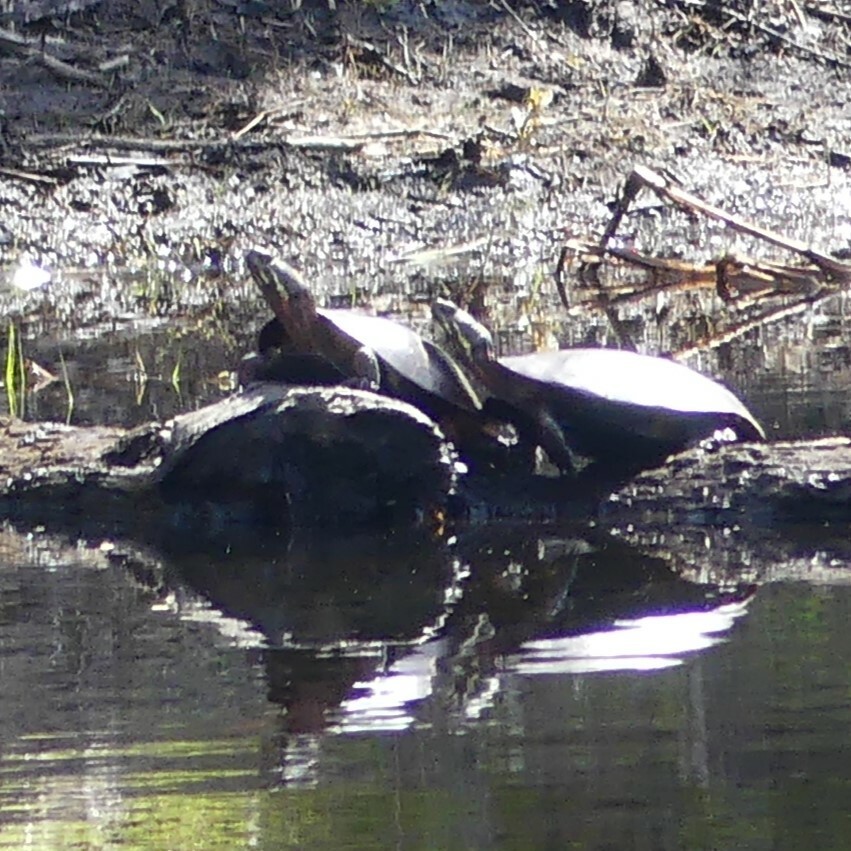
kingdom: Animalia
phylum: Chordata
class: Testudines
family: Emydidae
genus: Chrysemys
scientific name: Chrysemys picta
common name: Painted turtle
